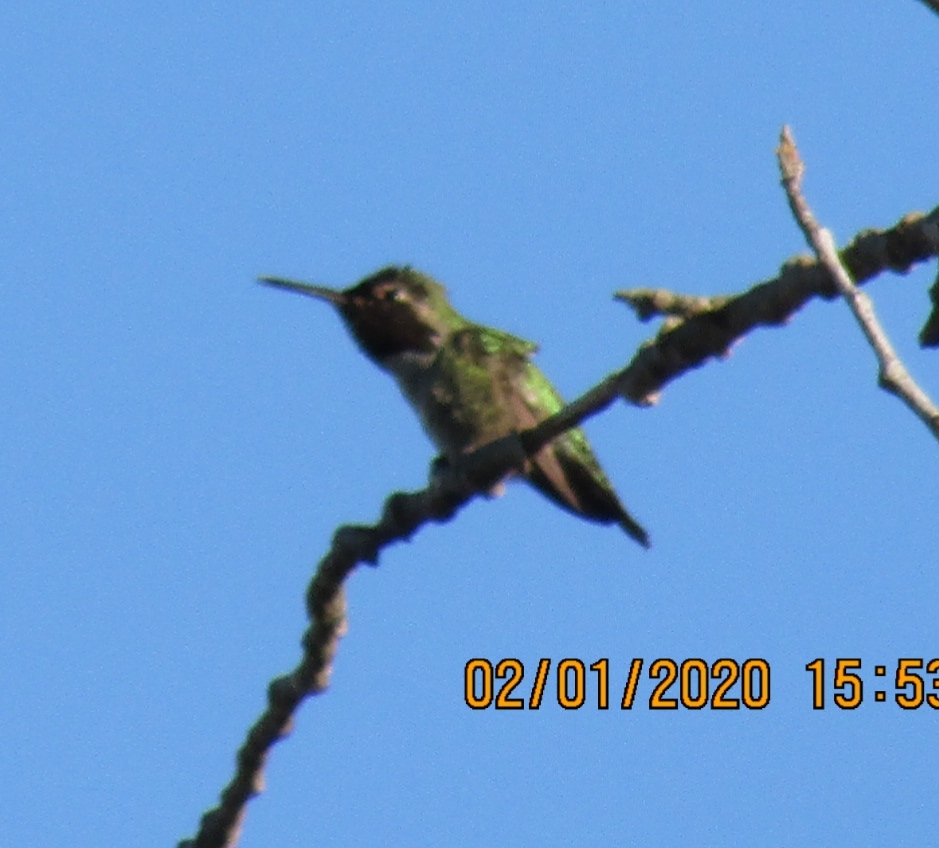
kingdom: Animalia
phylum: Chordata
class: Aves
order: Apodiformes
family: Trochilidae
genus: Calypte
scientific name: Calypte anna
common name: Anna's hummingbird
